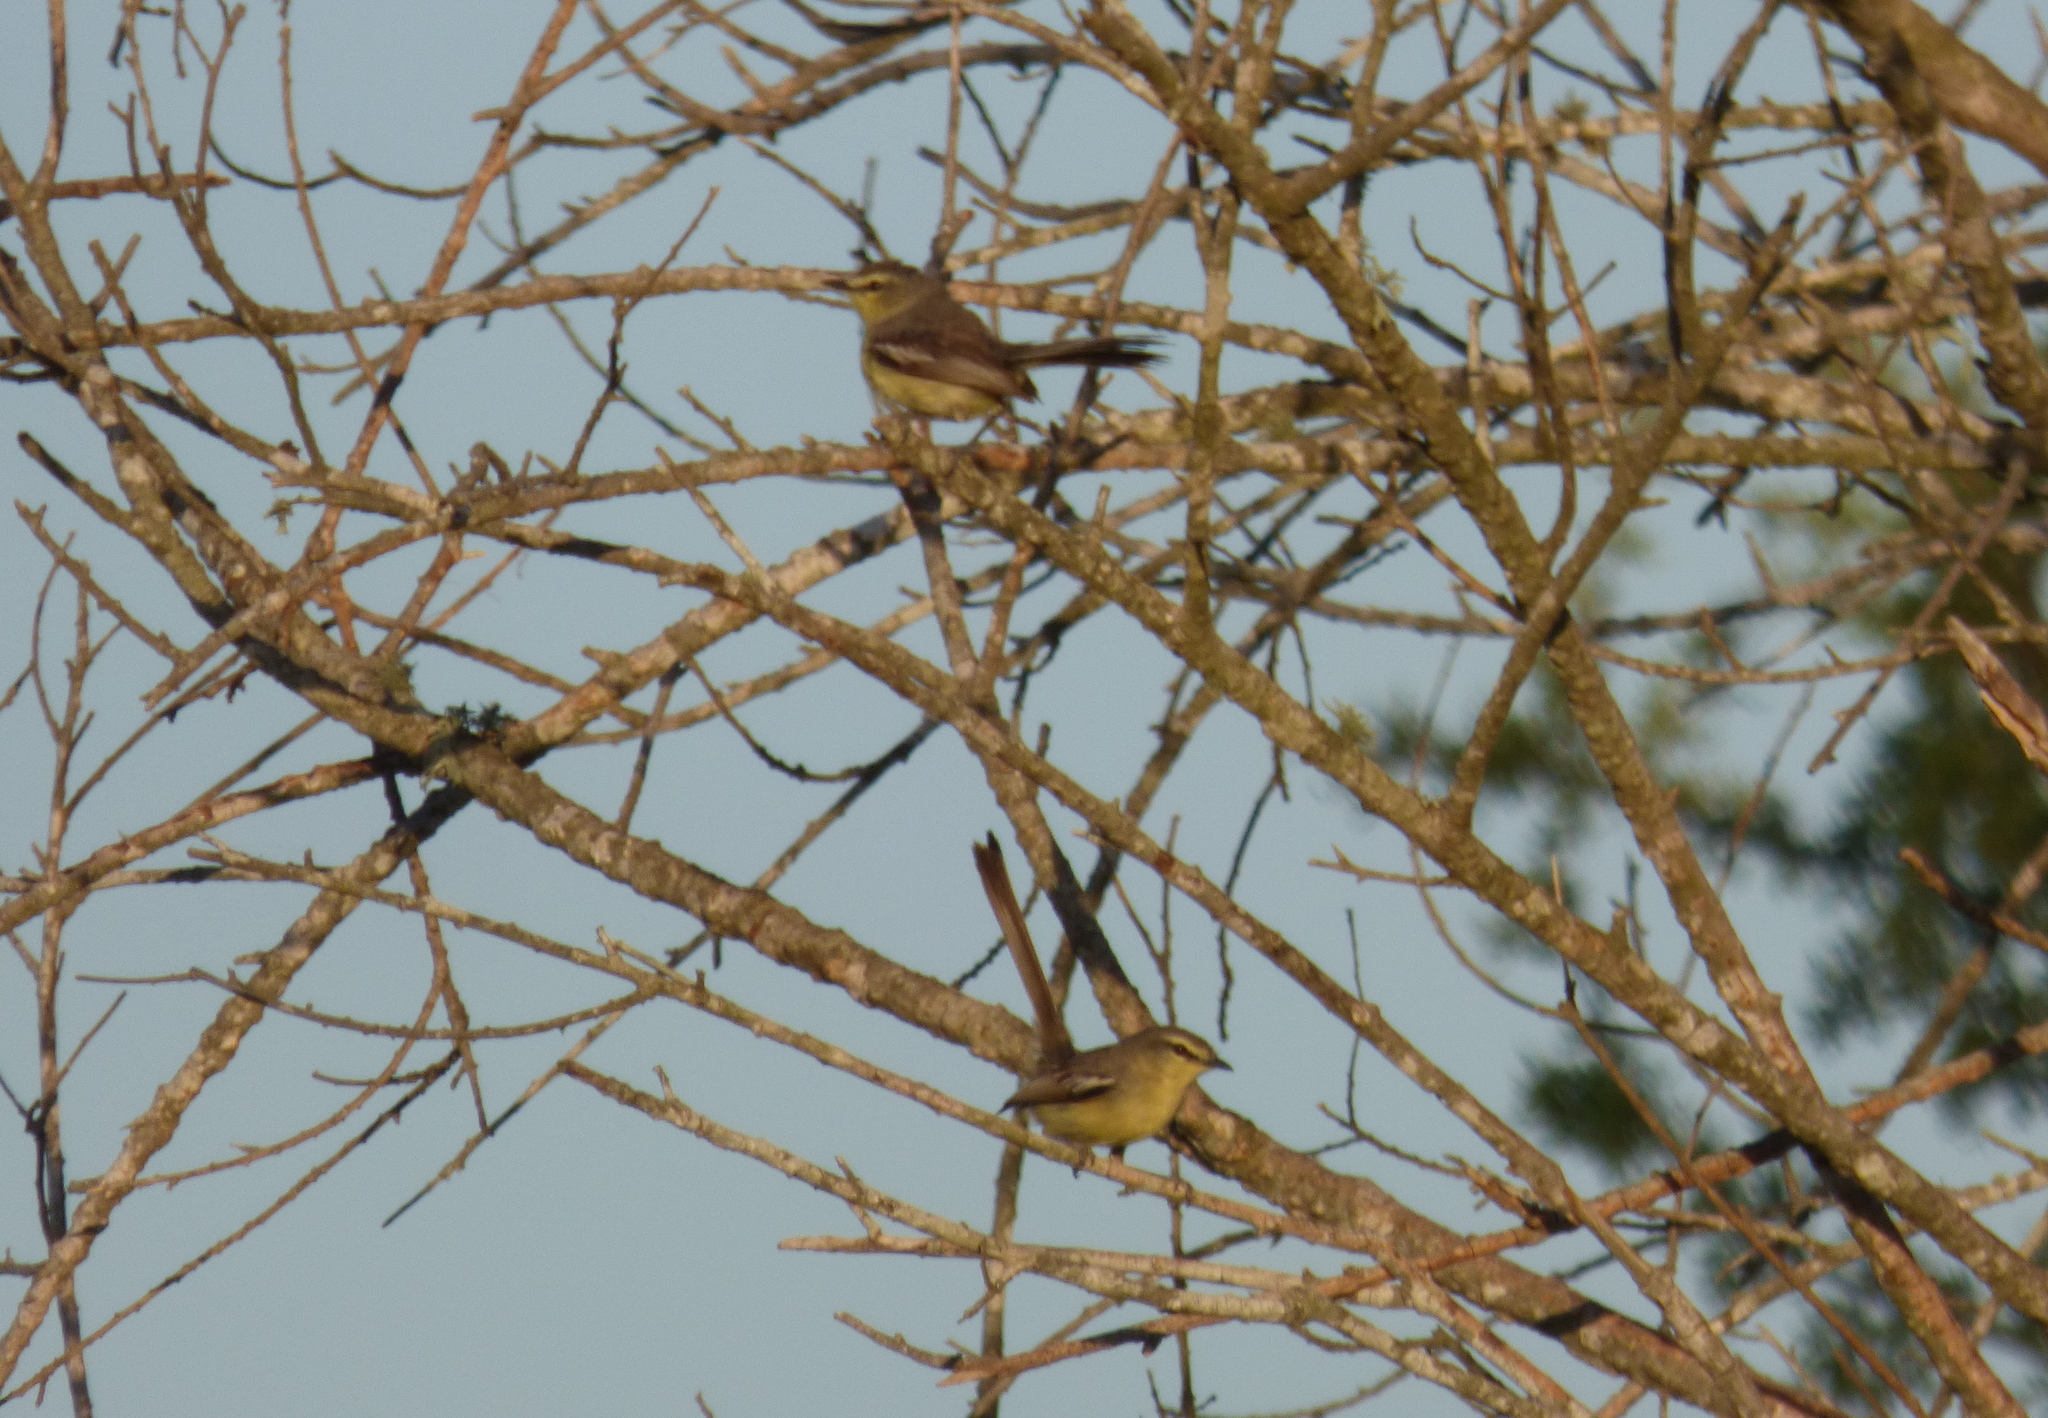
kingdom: Animalia
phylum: Chordata
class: Aves
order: Passeriformes
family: Tyrannidae
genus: Stigmatura
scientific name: Stigmatura budytoides
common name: Greater wagtail-tyrant
